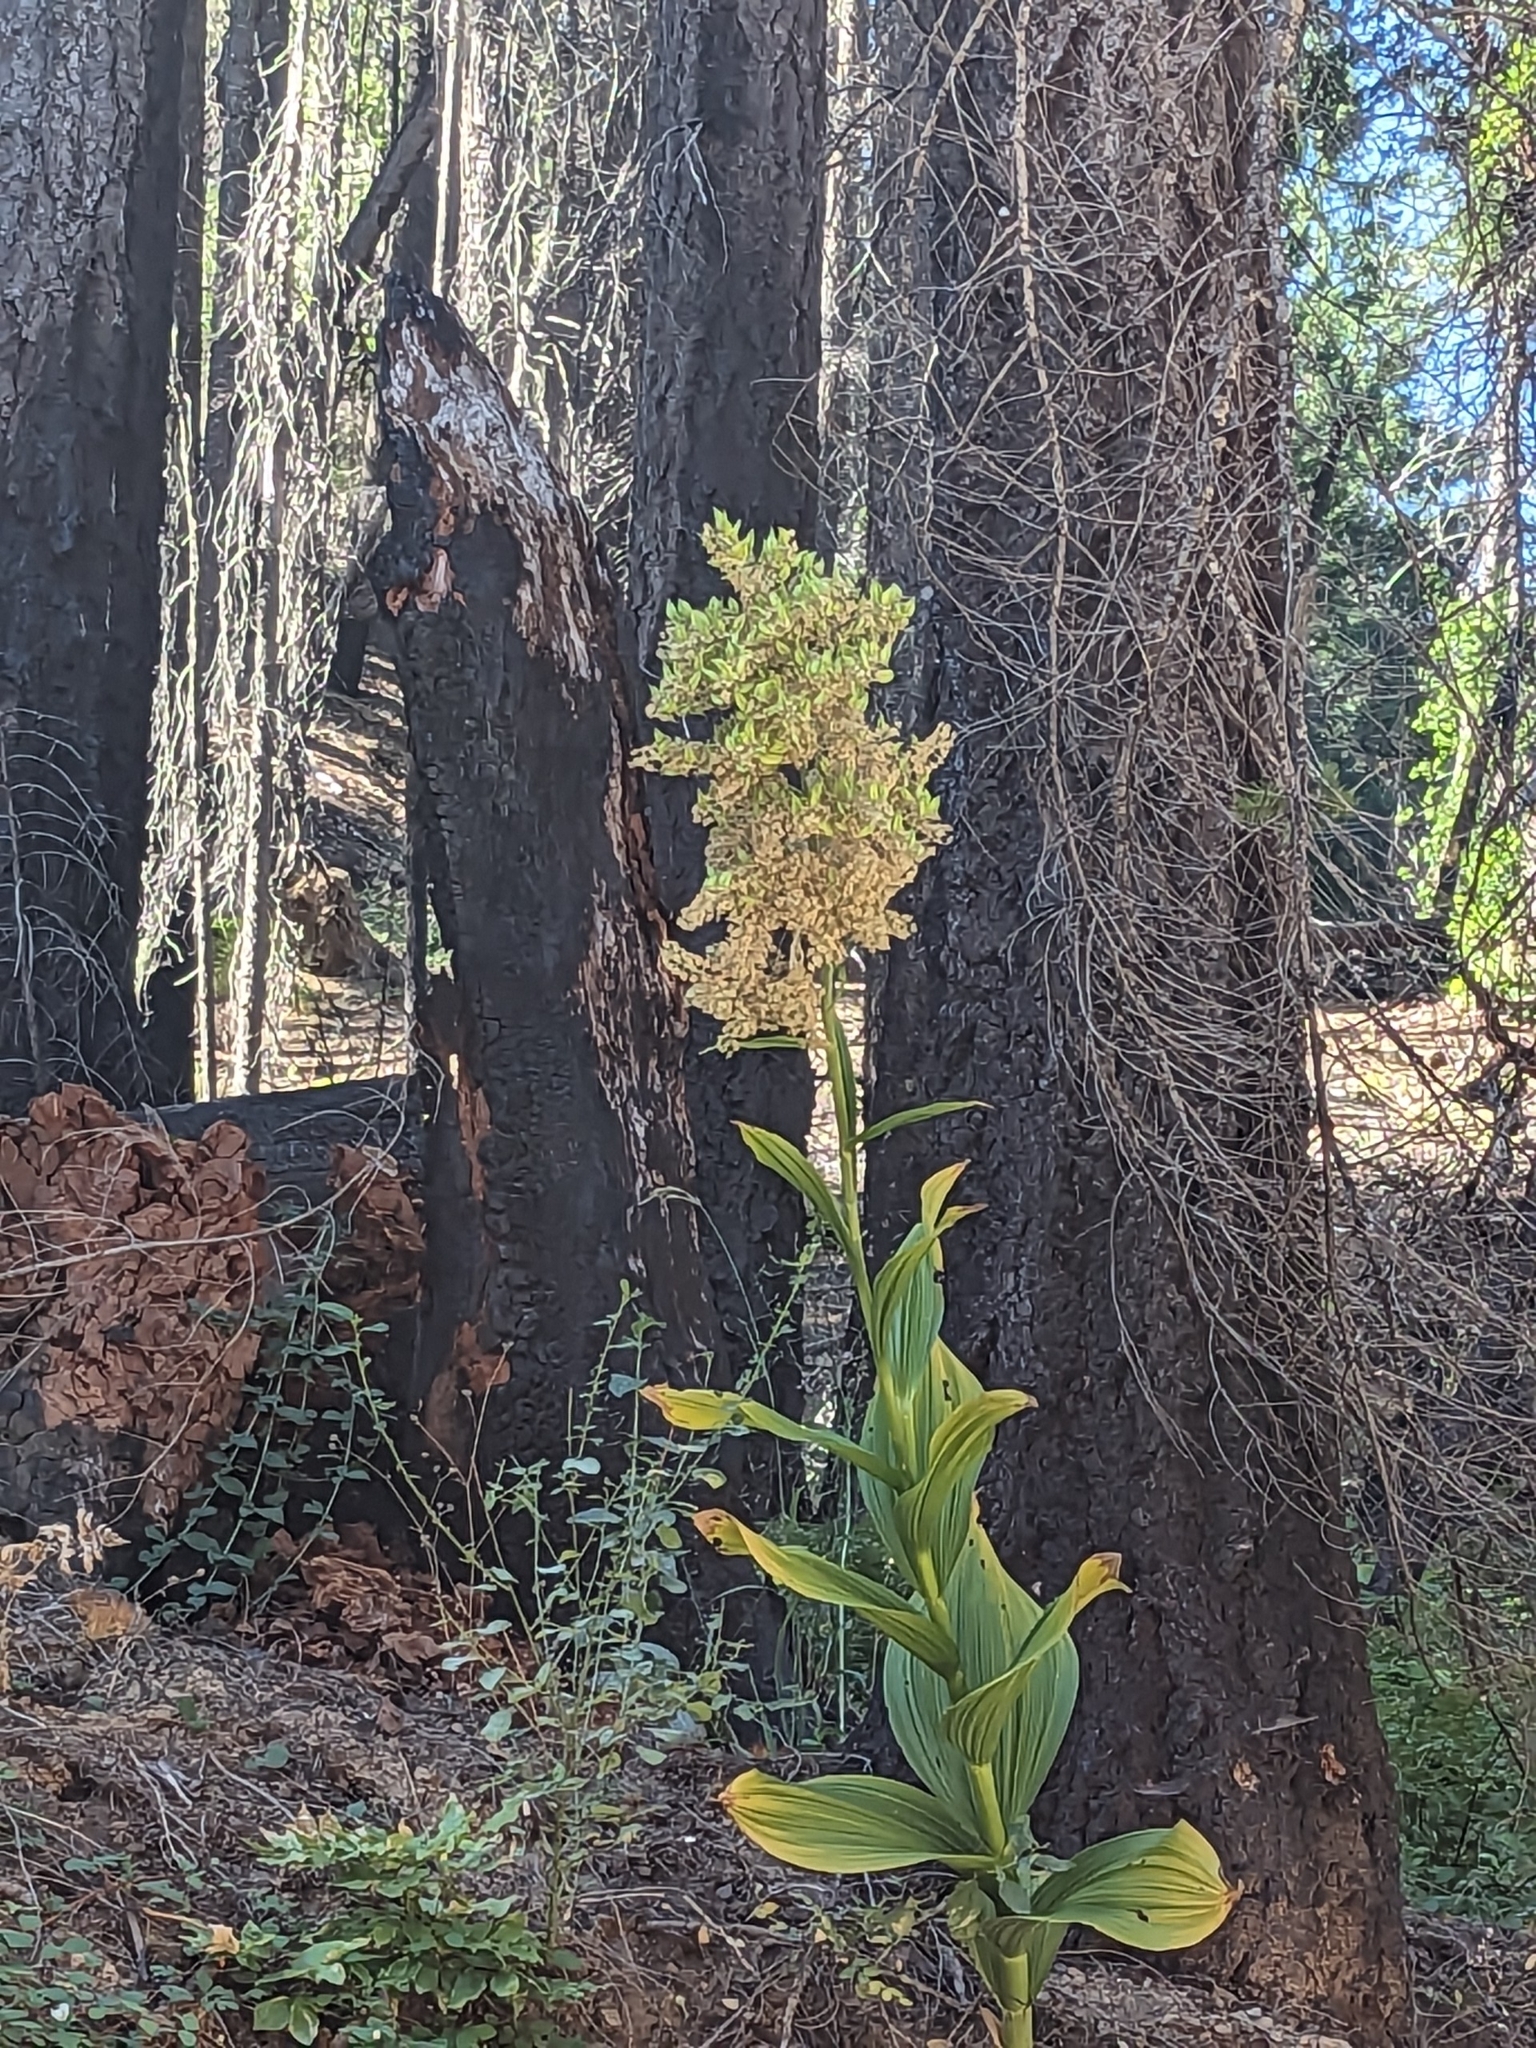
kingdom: Plantae
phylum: Tracheophyta
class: Liliopsida
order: Liliales
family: Melanthiaceae
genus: Veratrum
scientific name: Veratrum insolitum
